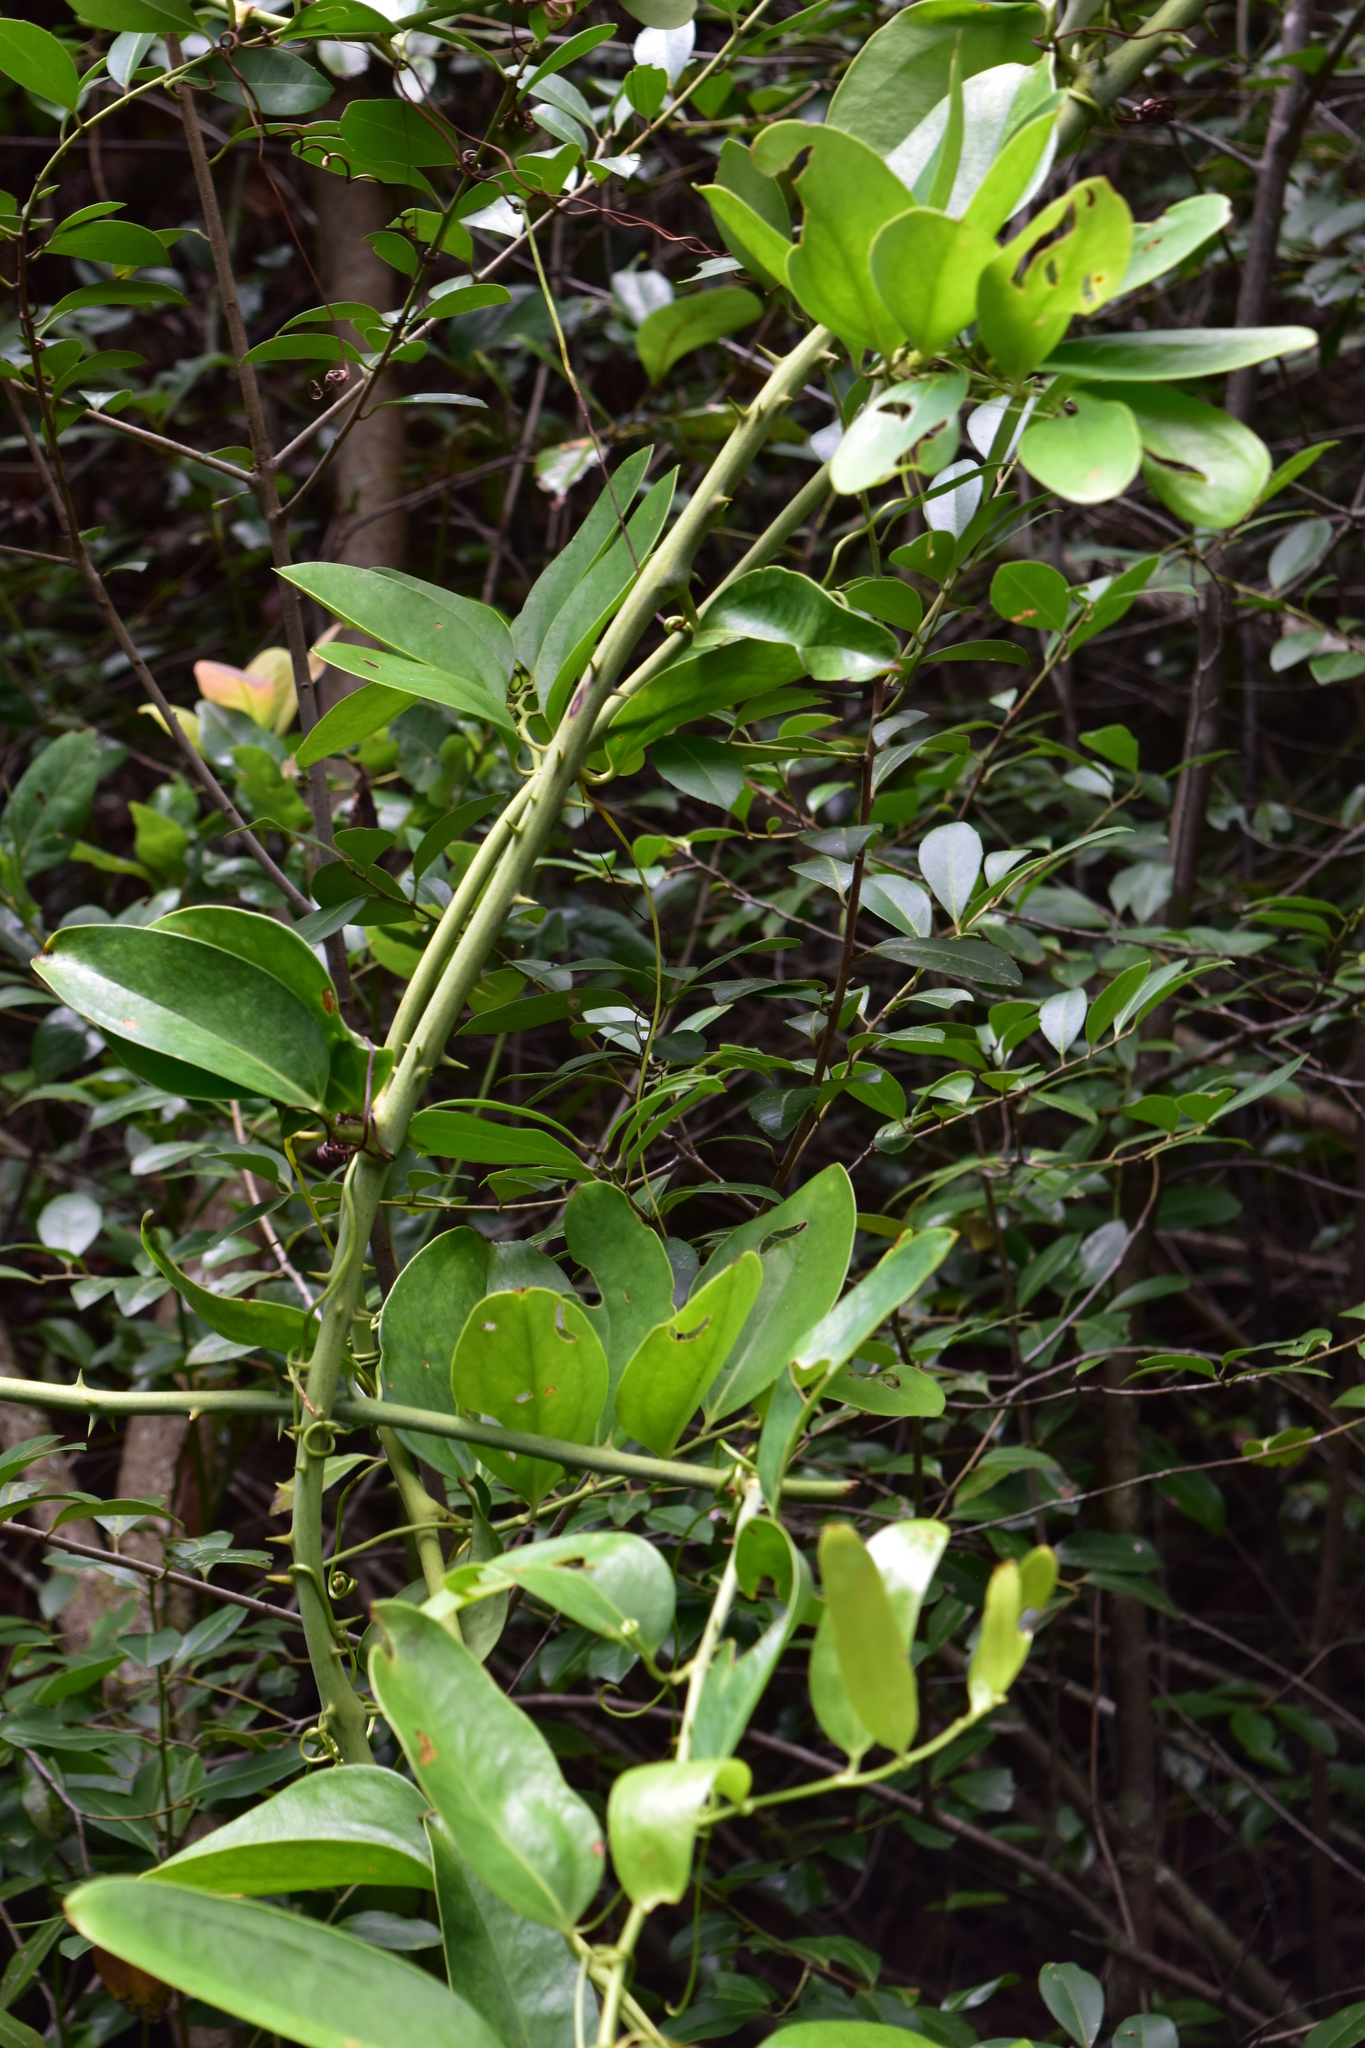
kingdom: Plantae
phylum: Tracheophyta
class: Liliopsida
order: Liliales
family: Smilacaceae
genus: Smilax
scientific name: Smilax laurifolia
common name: Bamboovine
